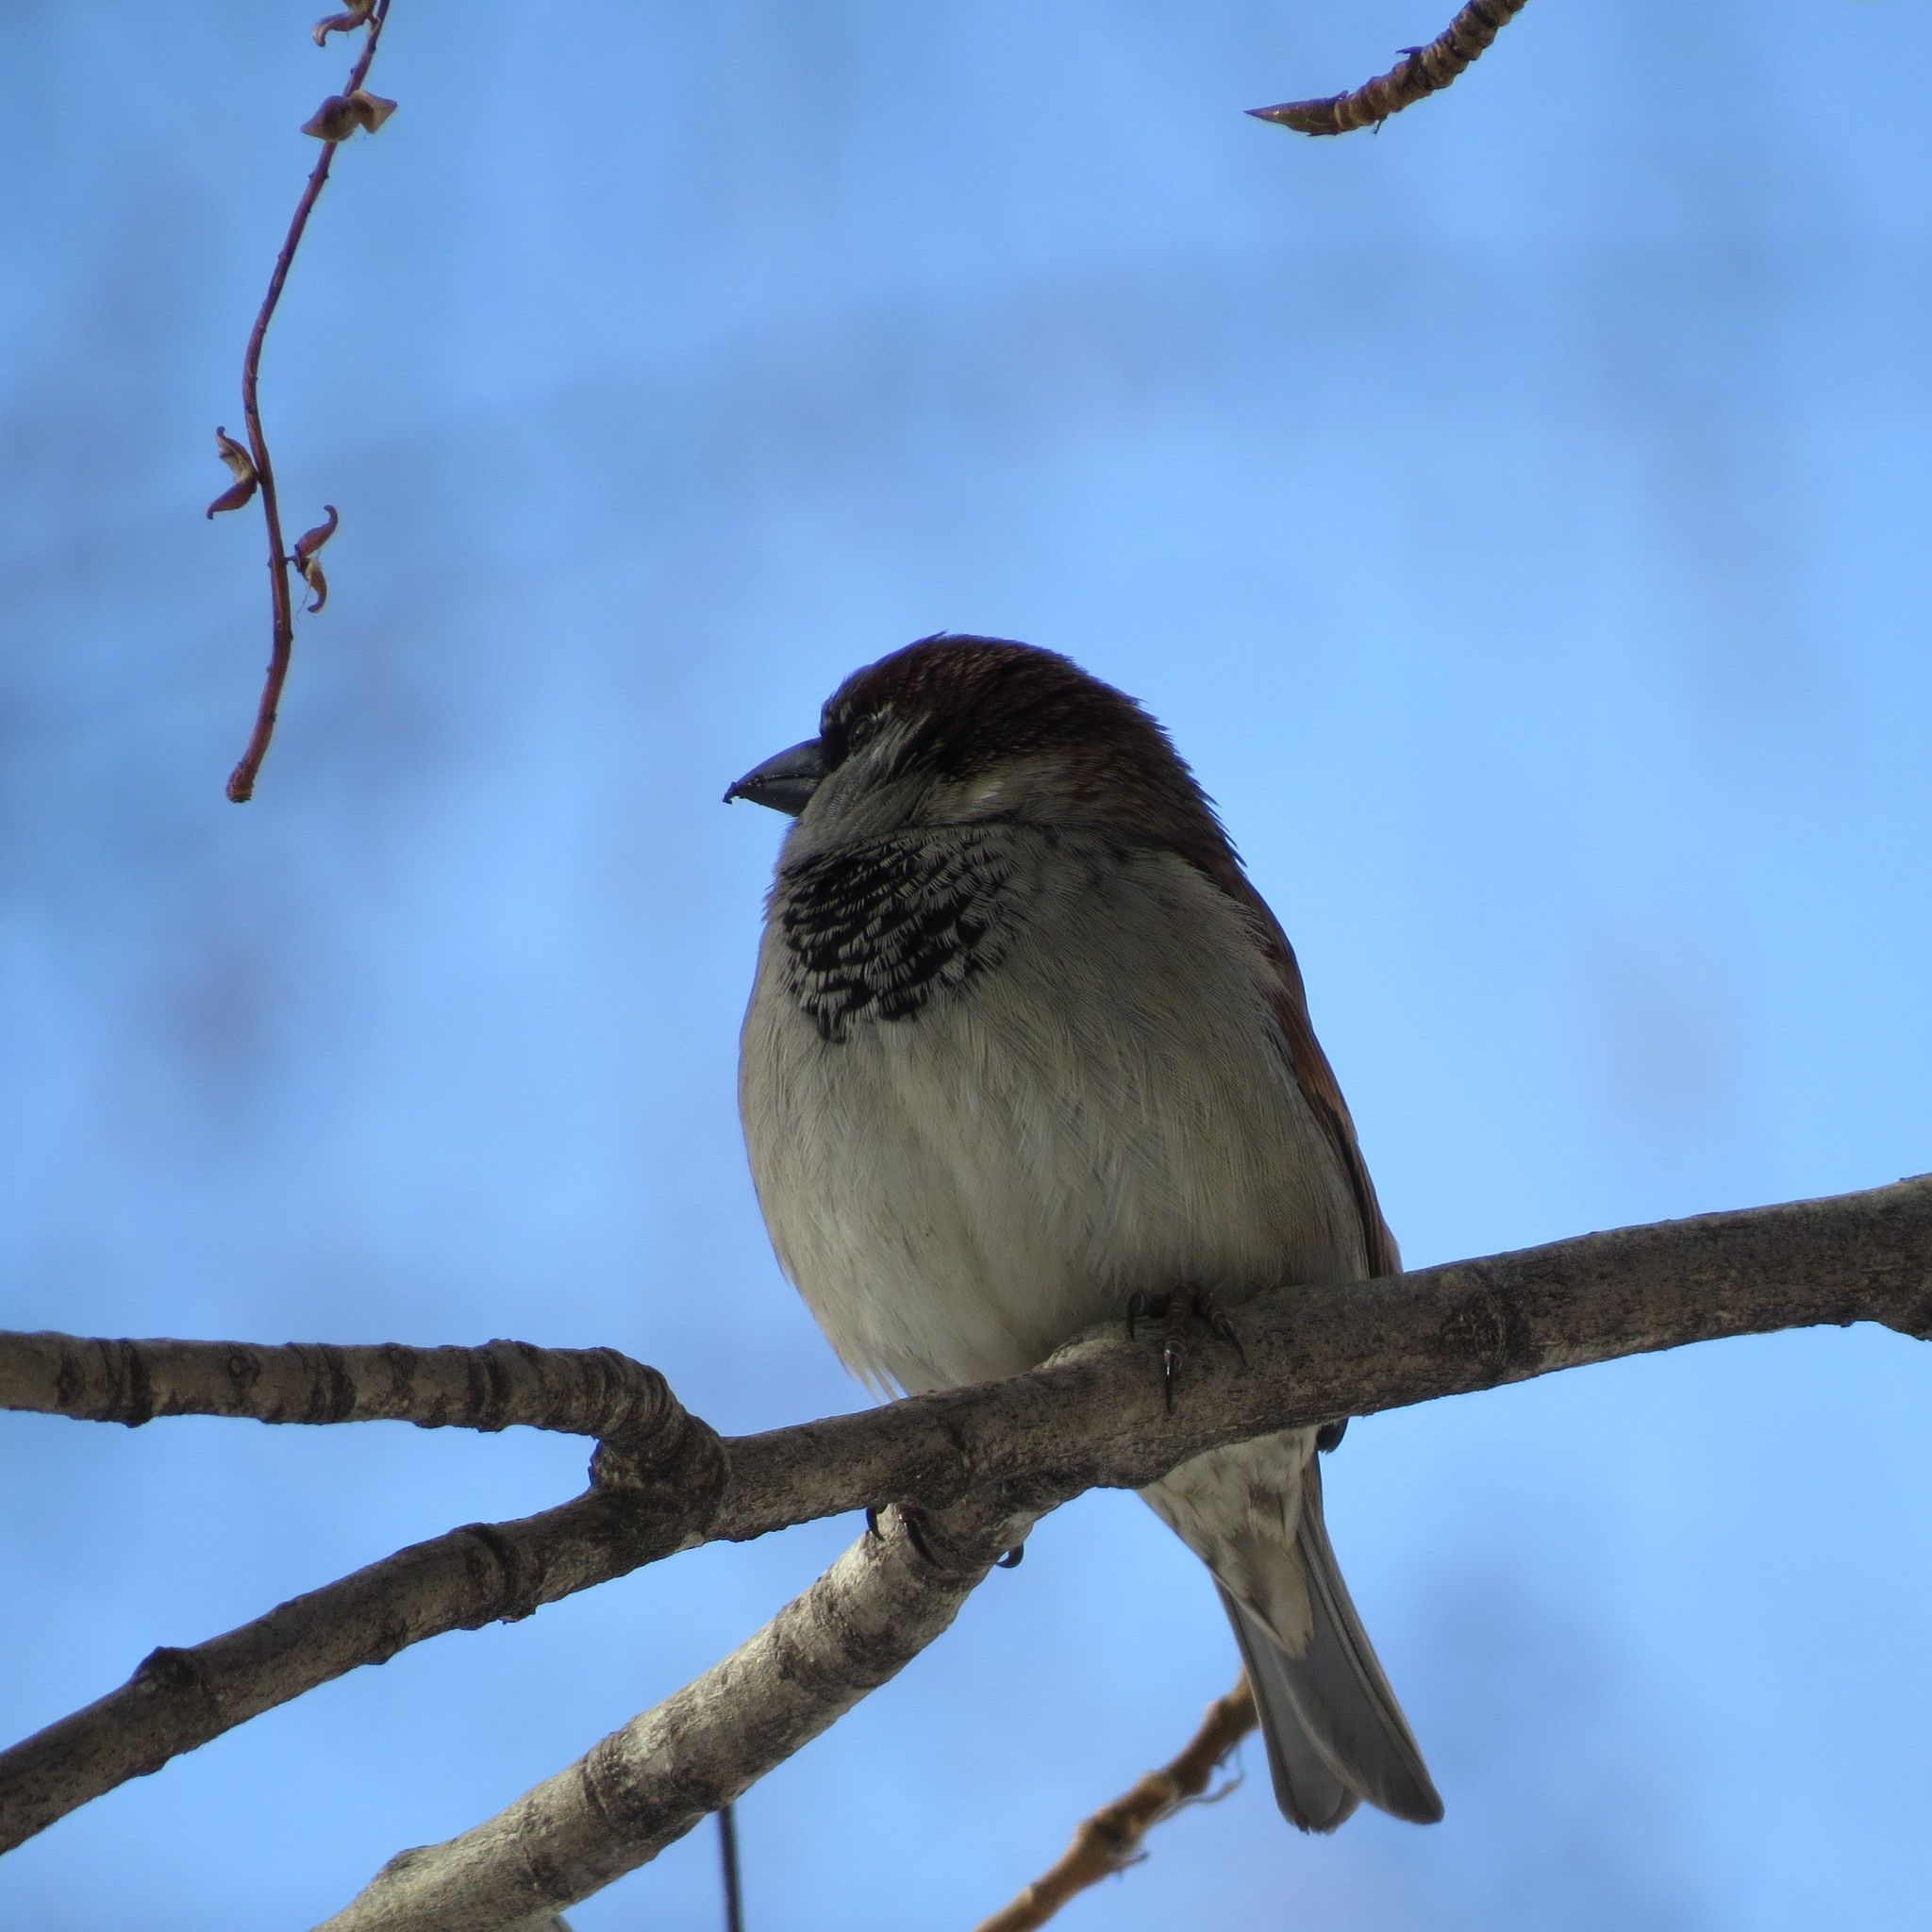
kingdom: Animalia
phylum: Chordata
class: Aves
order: Passeriformes
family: Passeridae
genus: Passer
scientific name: Passer domesticus
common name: House sparrow
